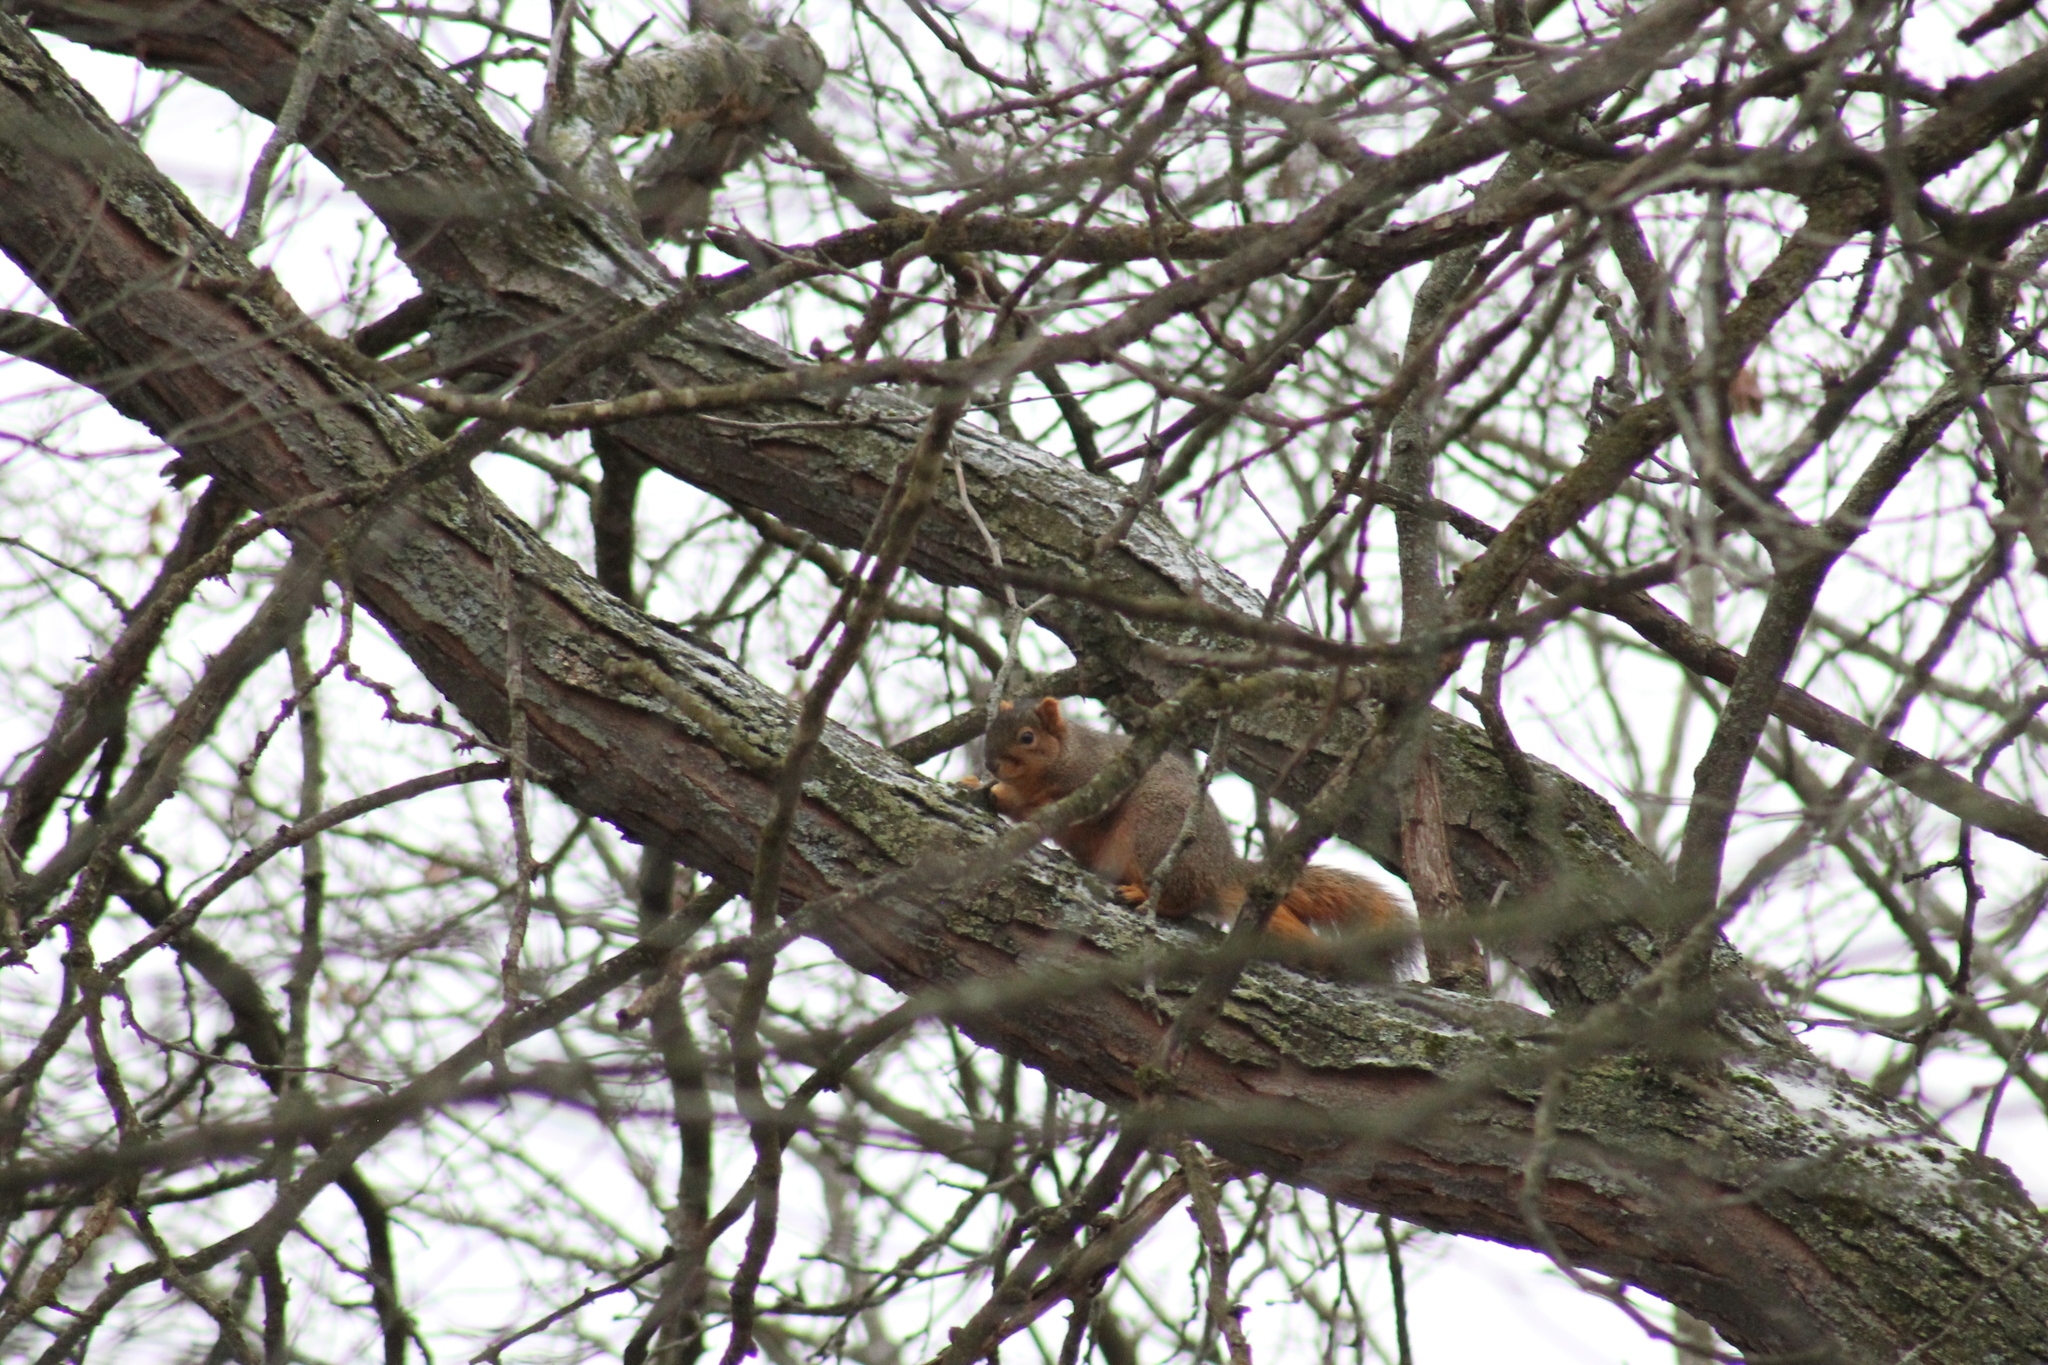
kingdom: Animalia
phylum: Chordata
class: Mammalia
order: Rodentia
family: Sciuridae
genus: Sciurus
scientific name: Sciurus niger
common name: Fox squirrel
